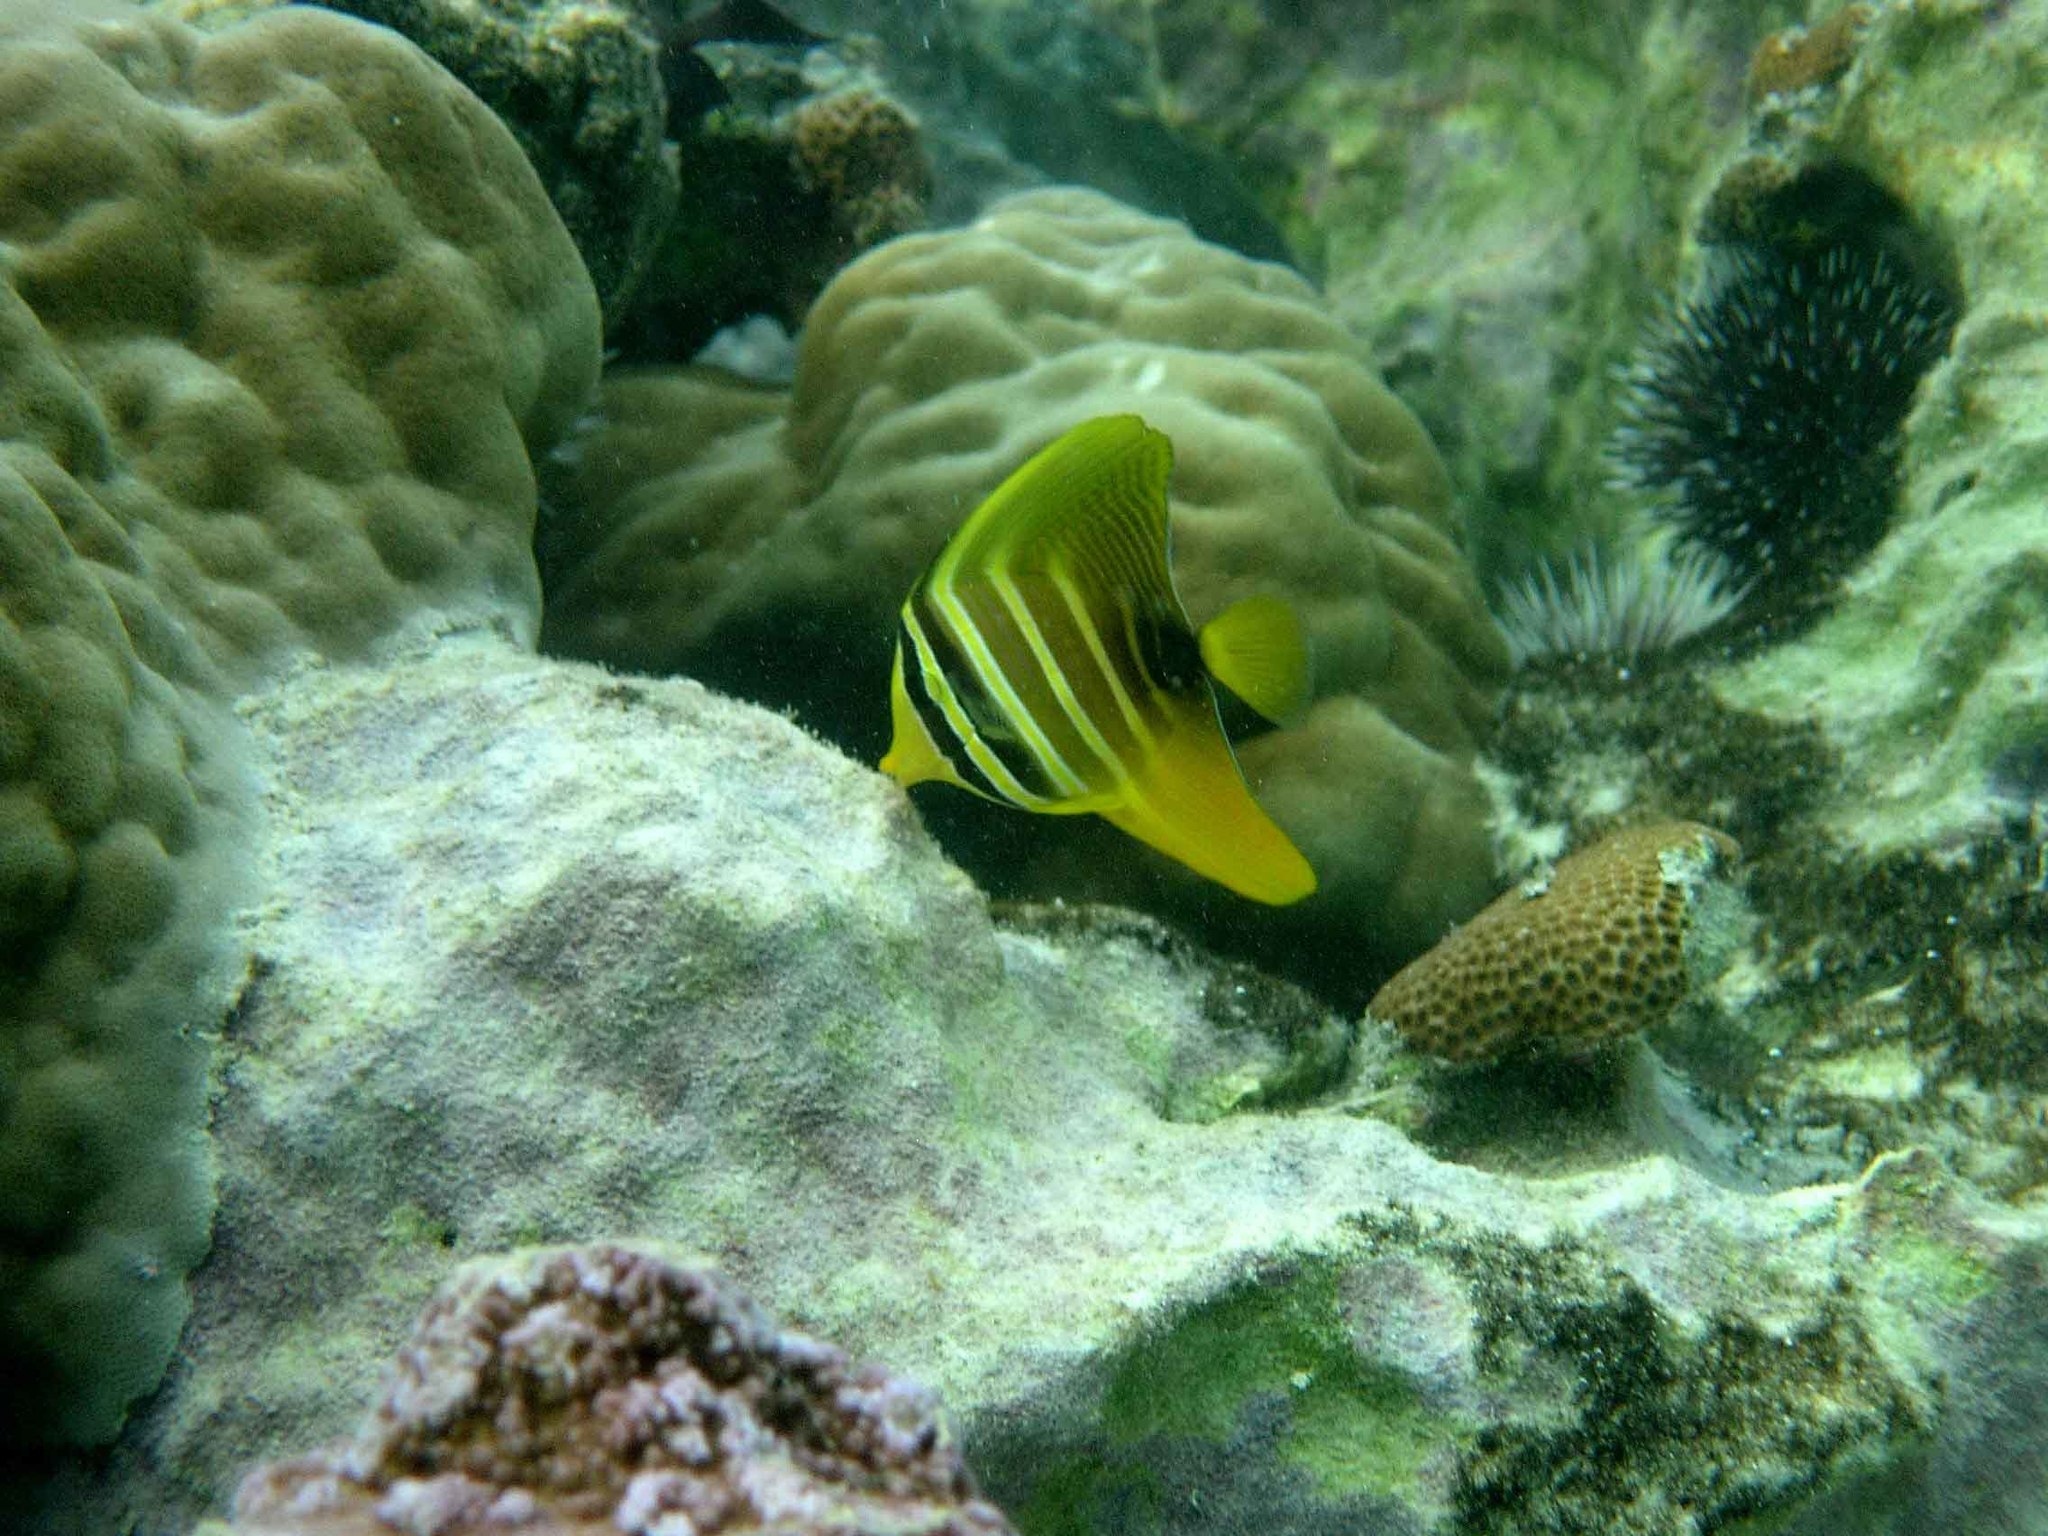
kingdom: Animalia
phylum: Chordata
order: Perciformes
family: Acanthuridae
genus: Zebrasoma
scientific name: Zebrasoma veliferum
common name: Sailfin surgeonfish
